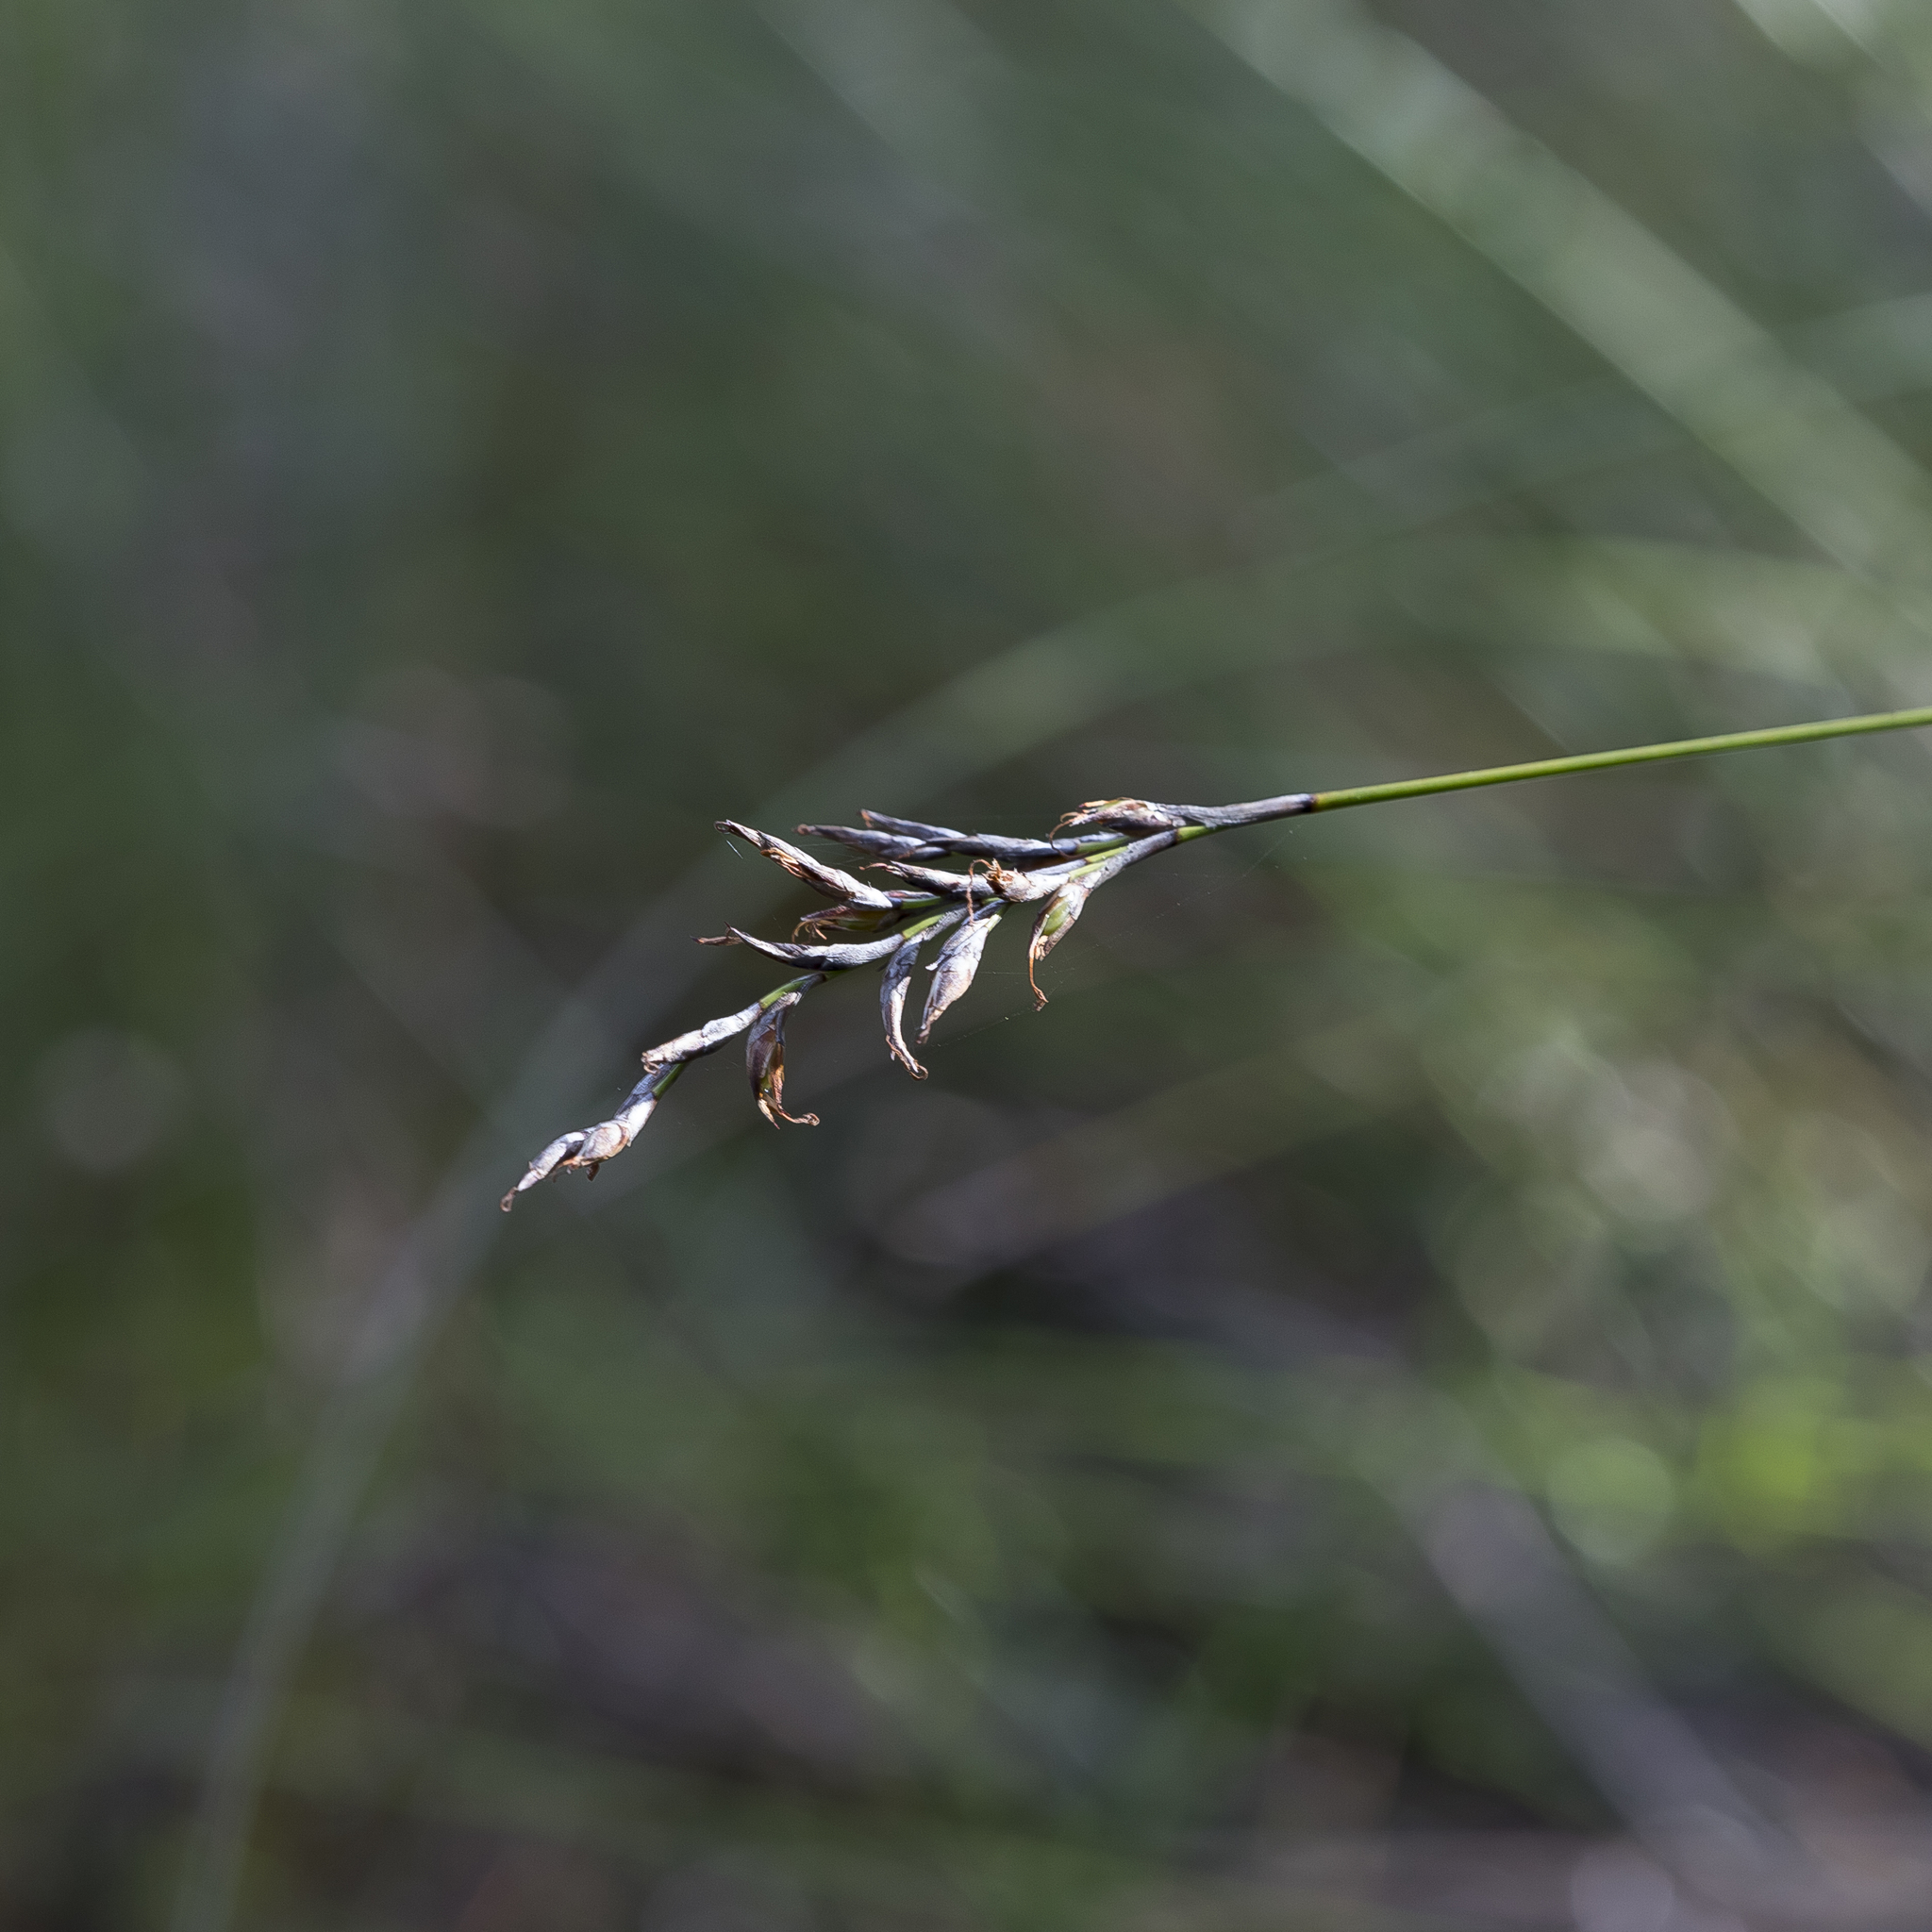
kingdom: Plantae
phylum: Tracheophyta
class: Liliopsida
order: Poales
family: Cyperaceae
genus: Lepidosperma
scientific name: Lepidosperma semiteres
